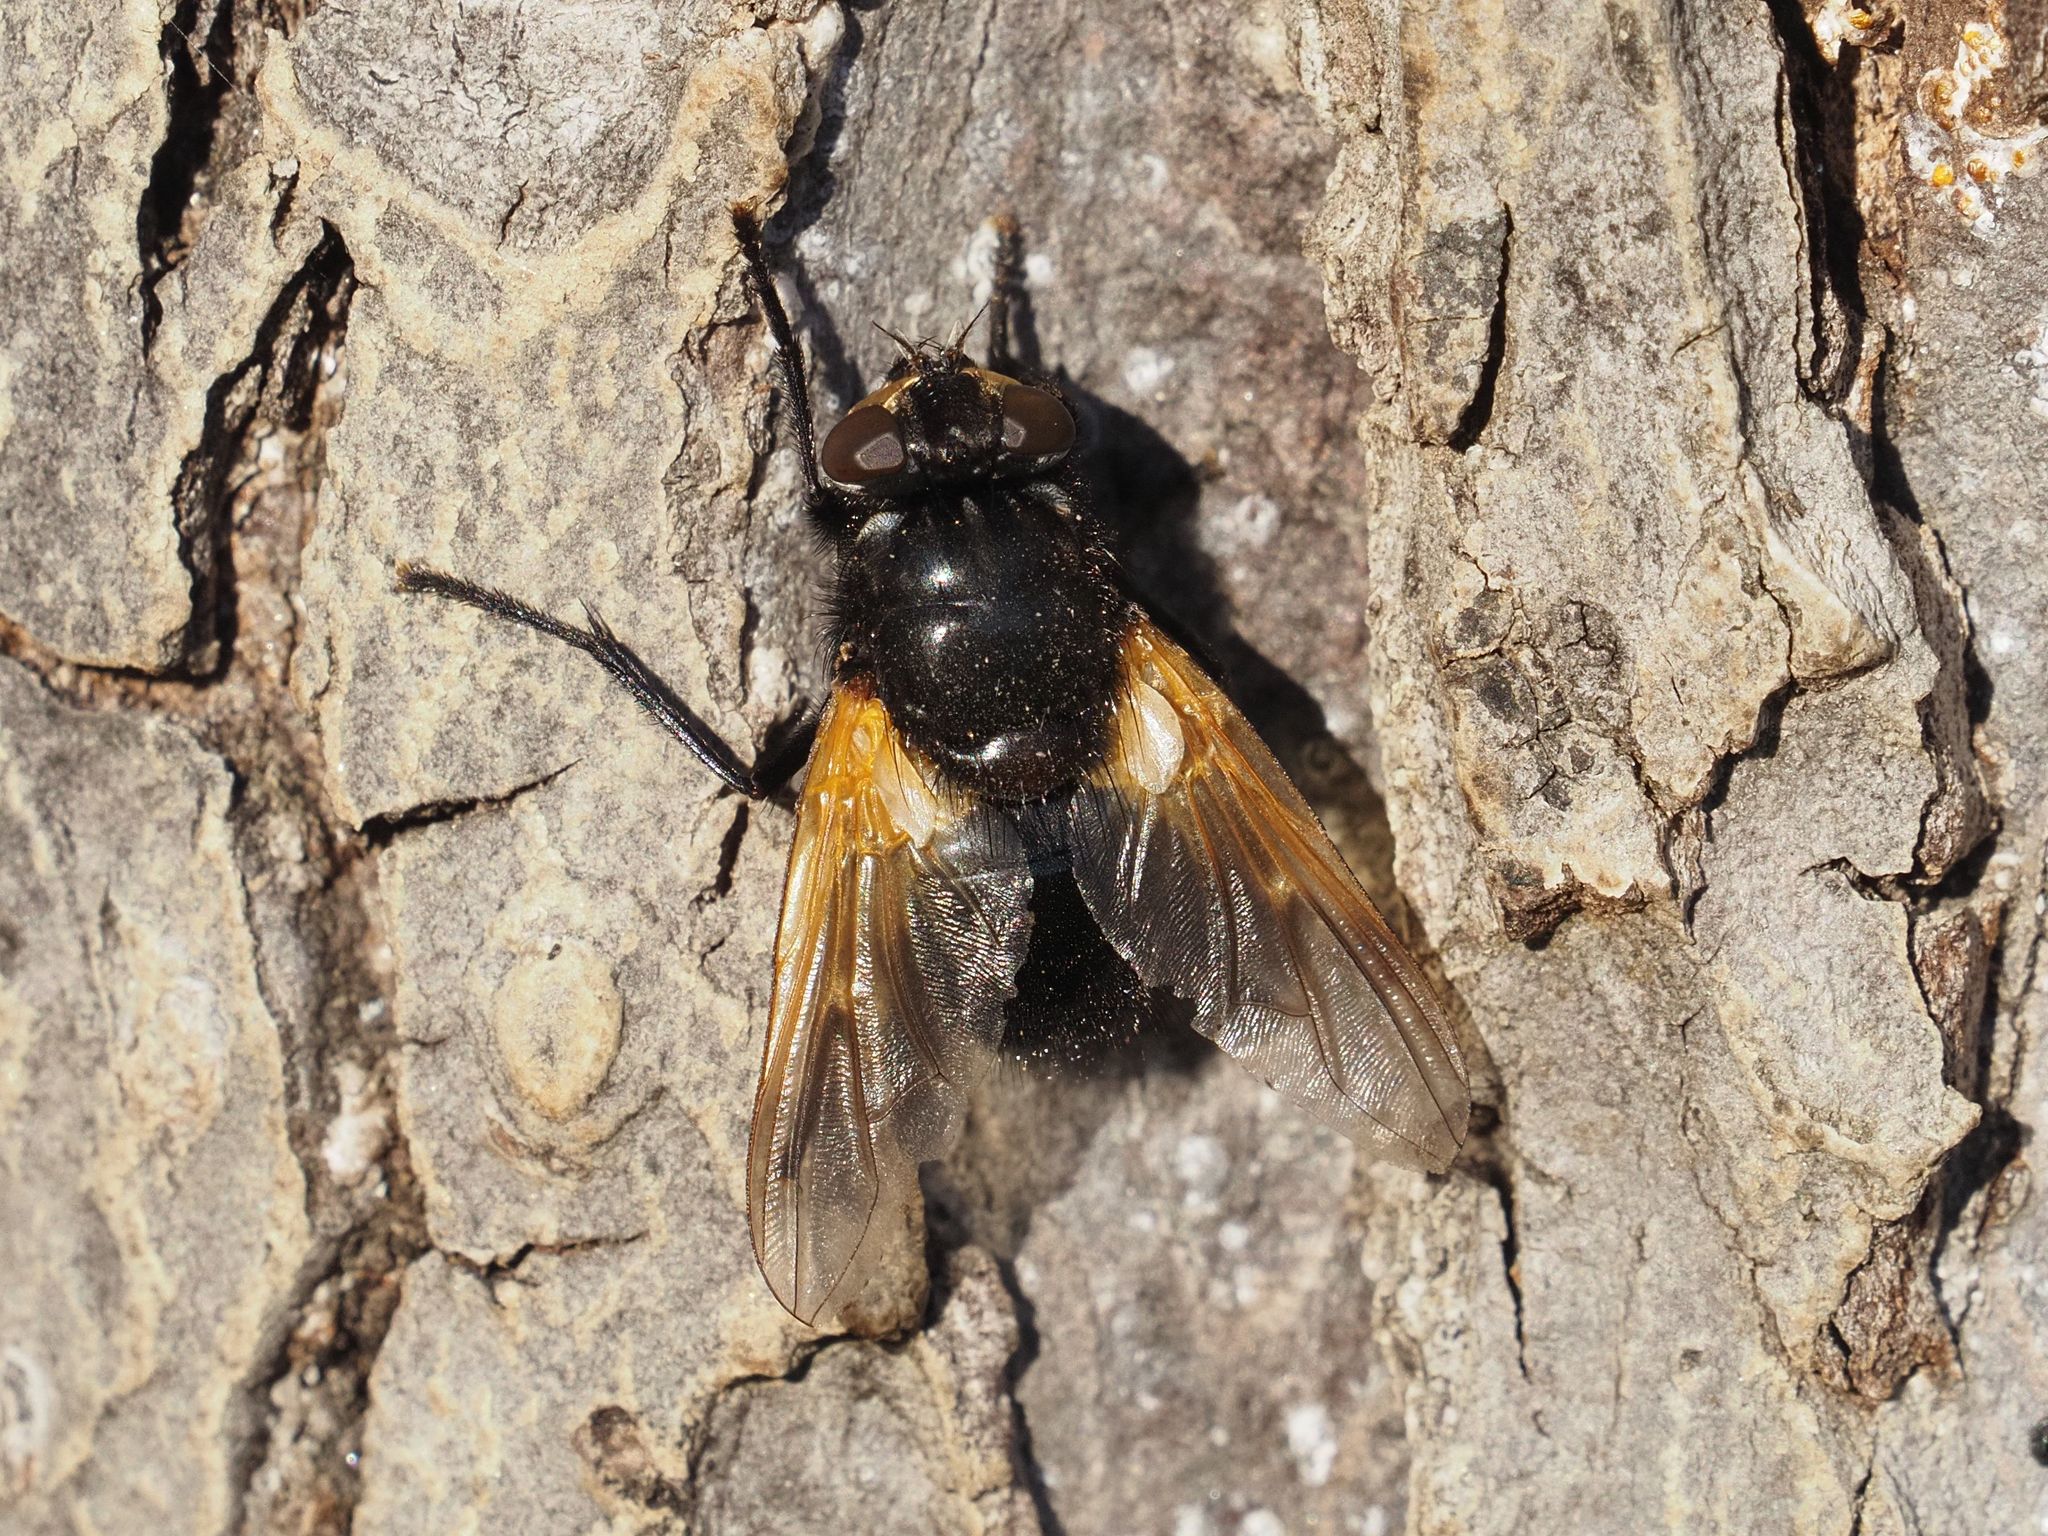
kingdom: Animalia
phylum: Arthropoda
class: Insecta
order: Diptera
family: Muscidae
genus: Mesembrina
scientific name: Mesembrina meridiana
